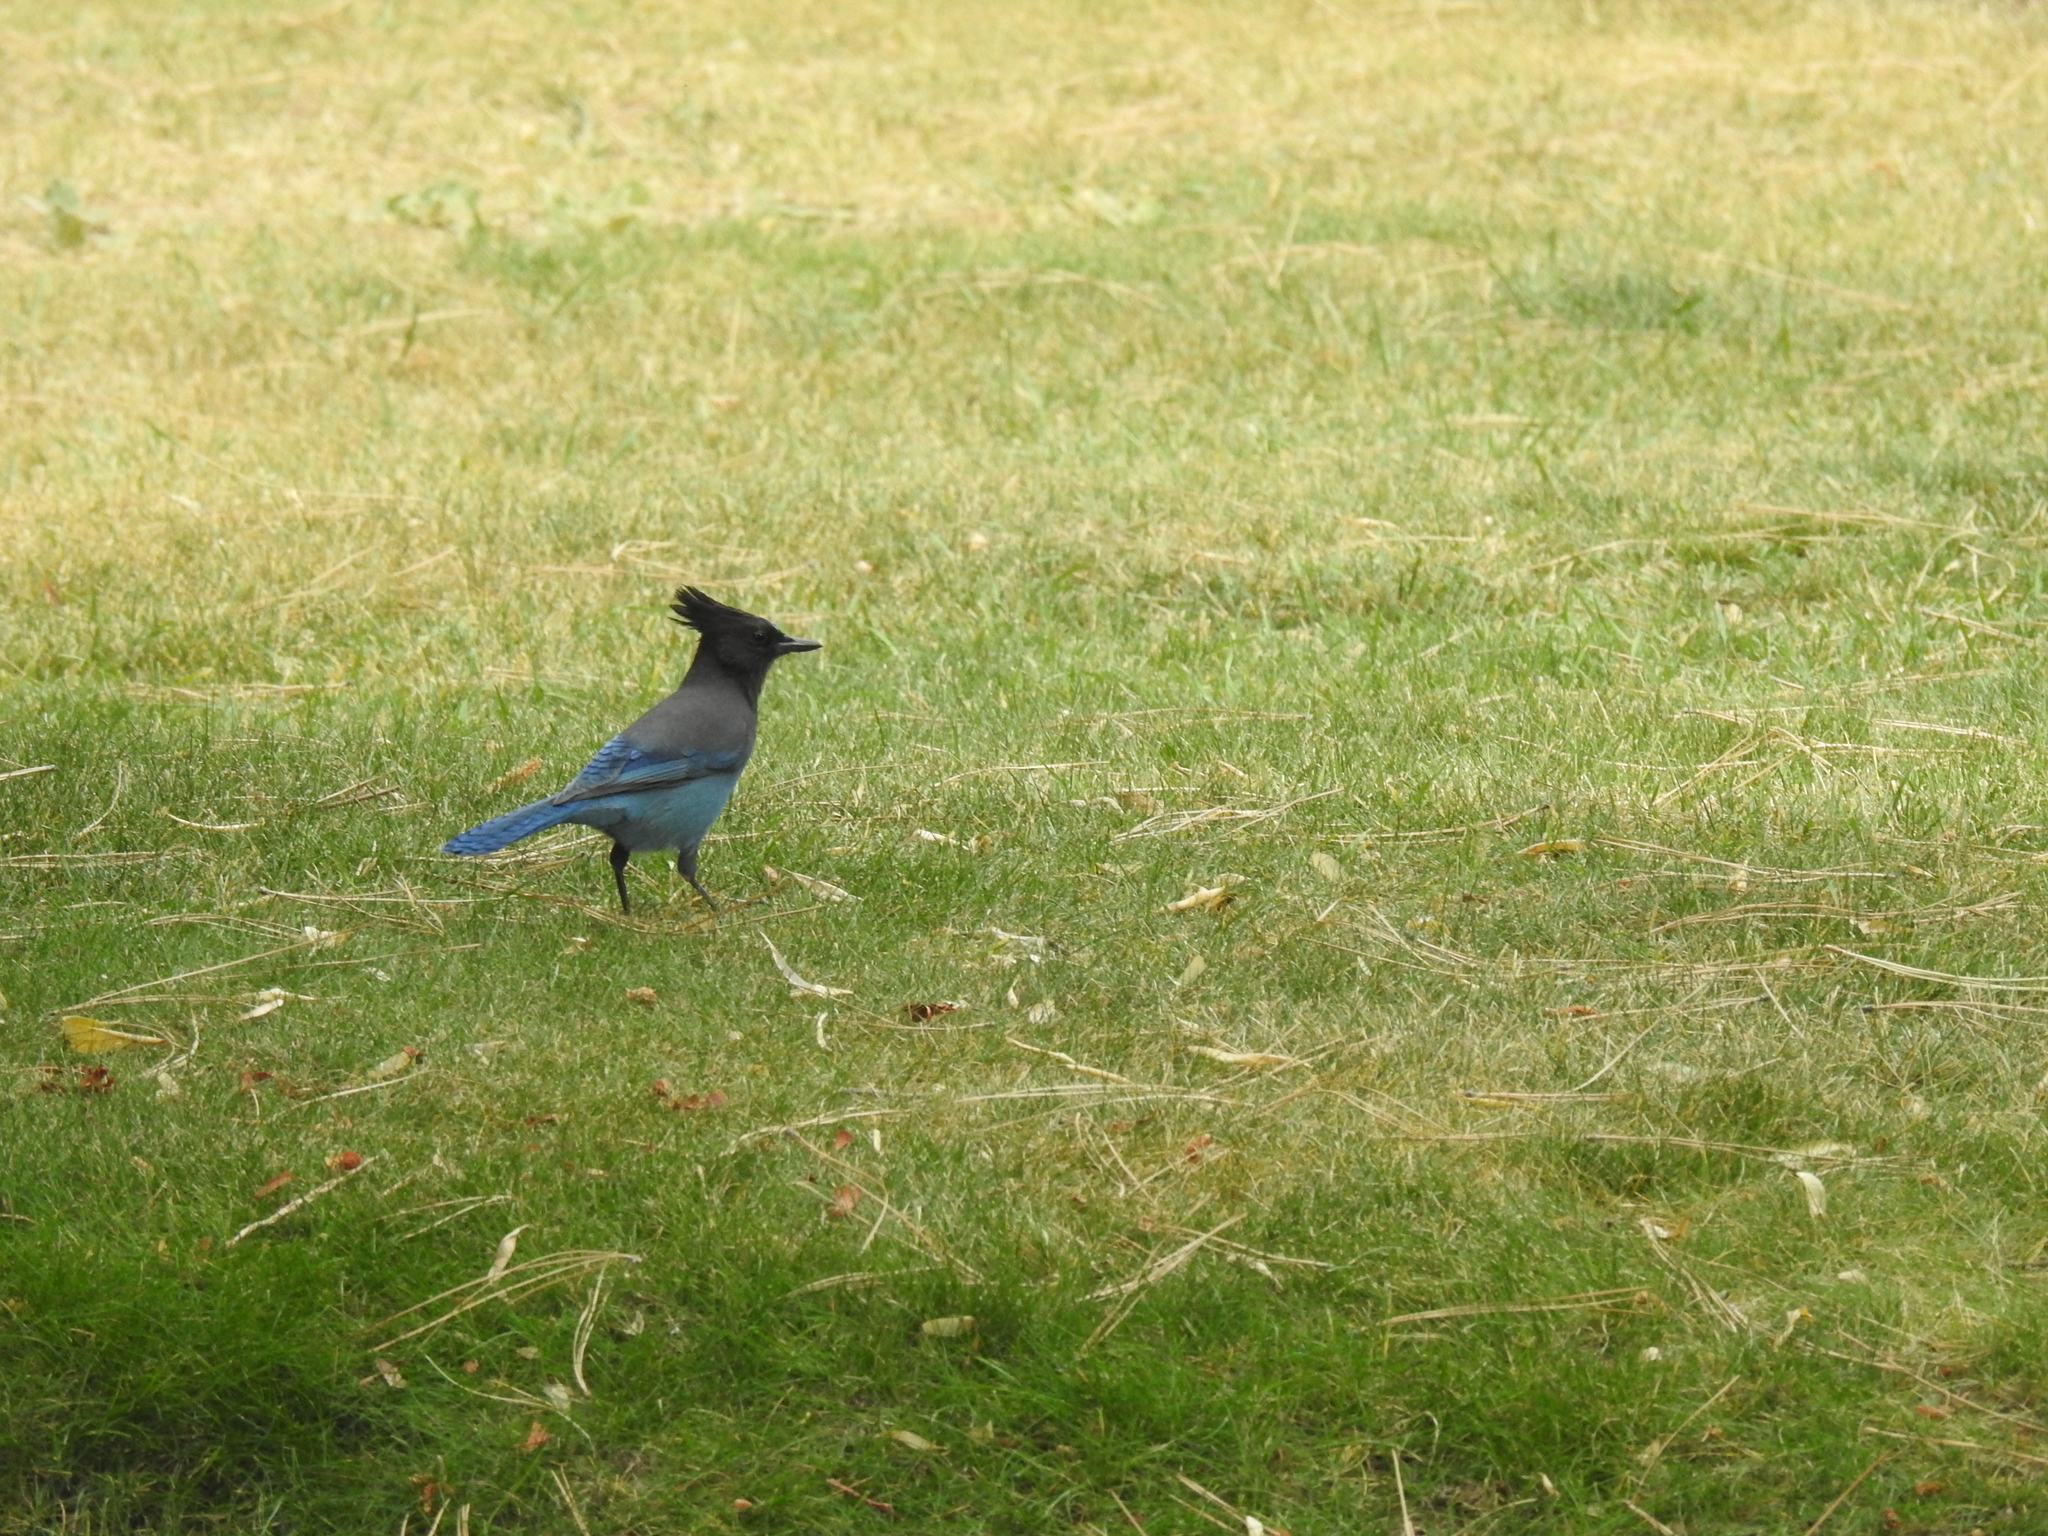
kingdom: Animalia
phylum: Chordata
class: Aves
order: Passeriformes
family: Corvidae
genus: Cyanocitta
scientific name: Cyanocitta stelleri
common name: Steller's jay
